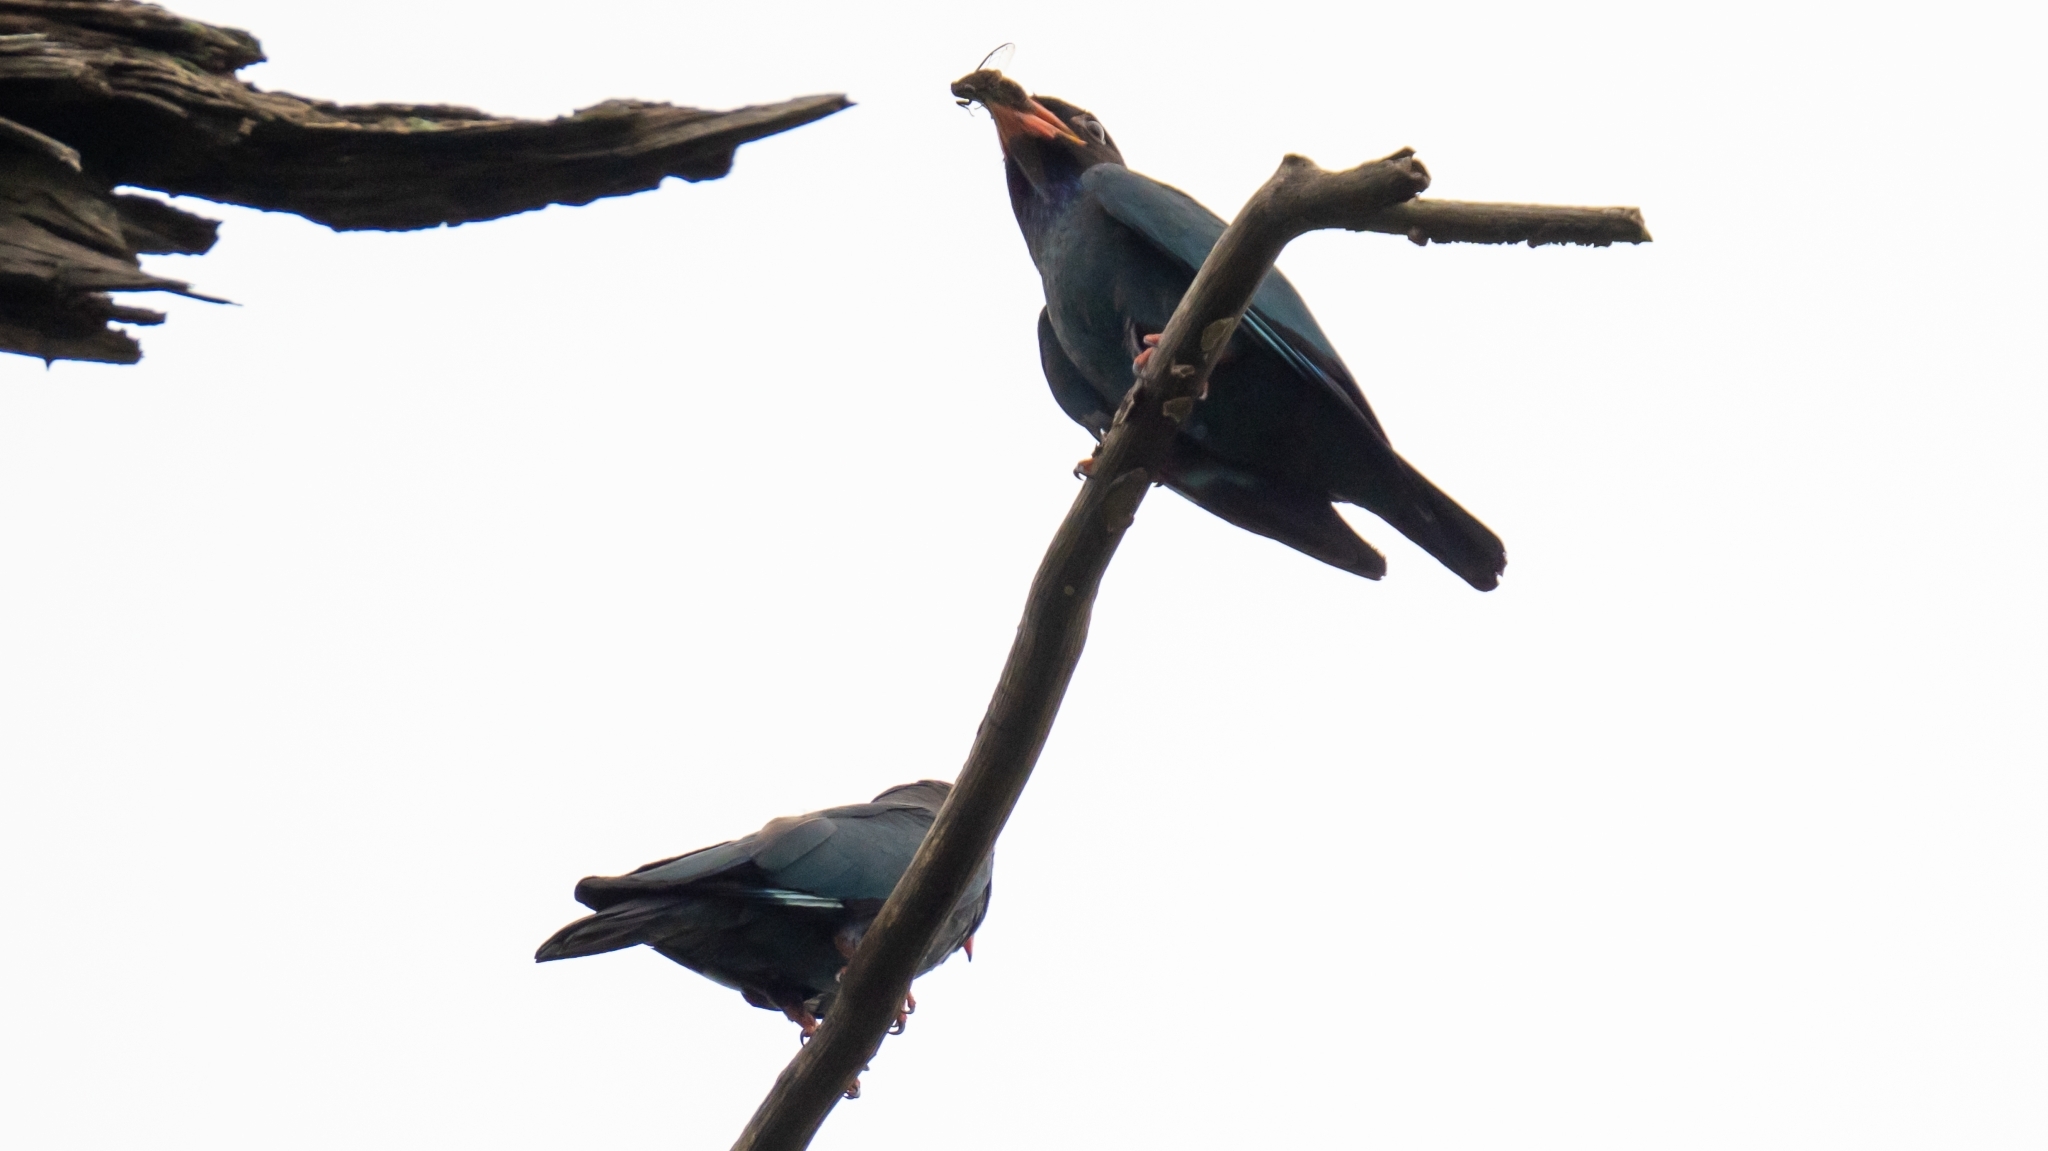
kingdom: Animalia
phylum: Chordata
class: Aves
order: Coraciiformes
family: Coraciidae
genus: Eurystomus
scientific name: Eurystomus orientalis
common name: Oriental dollarbird
